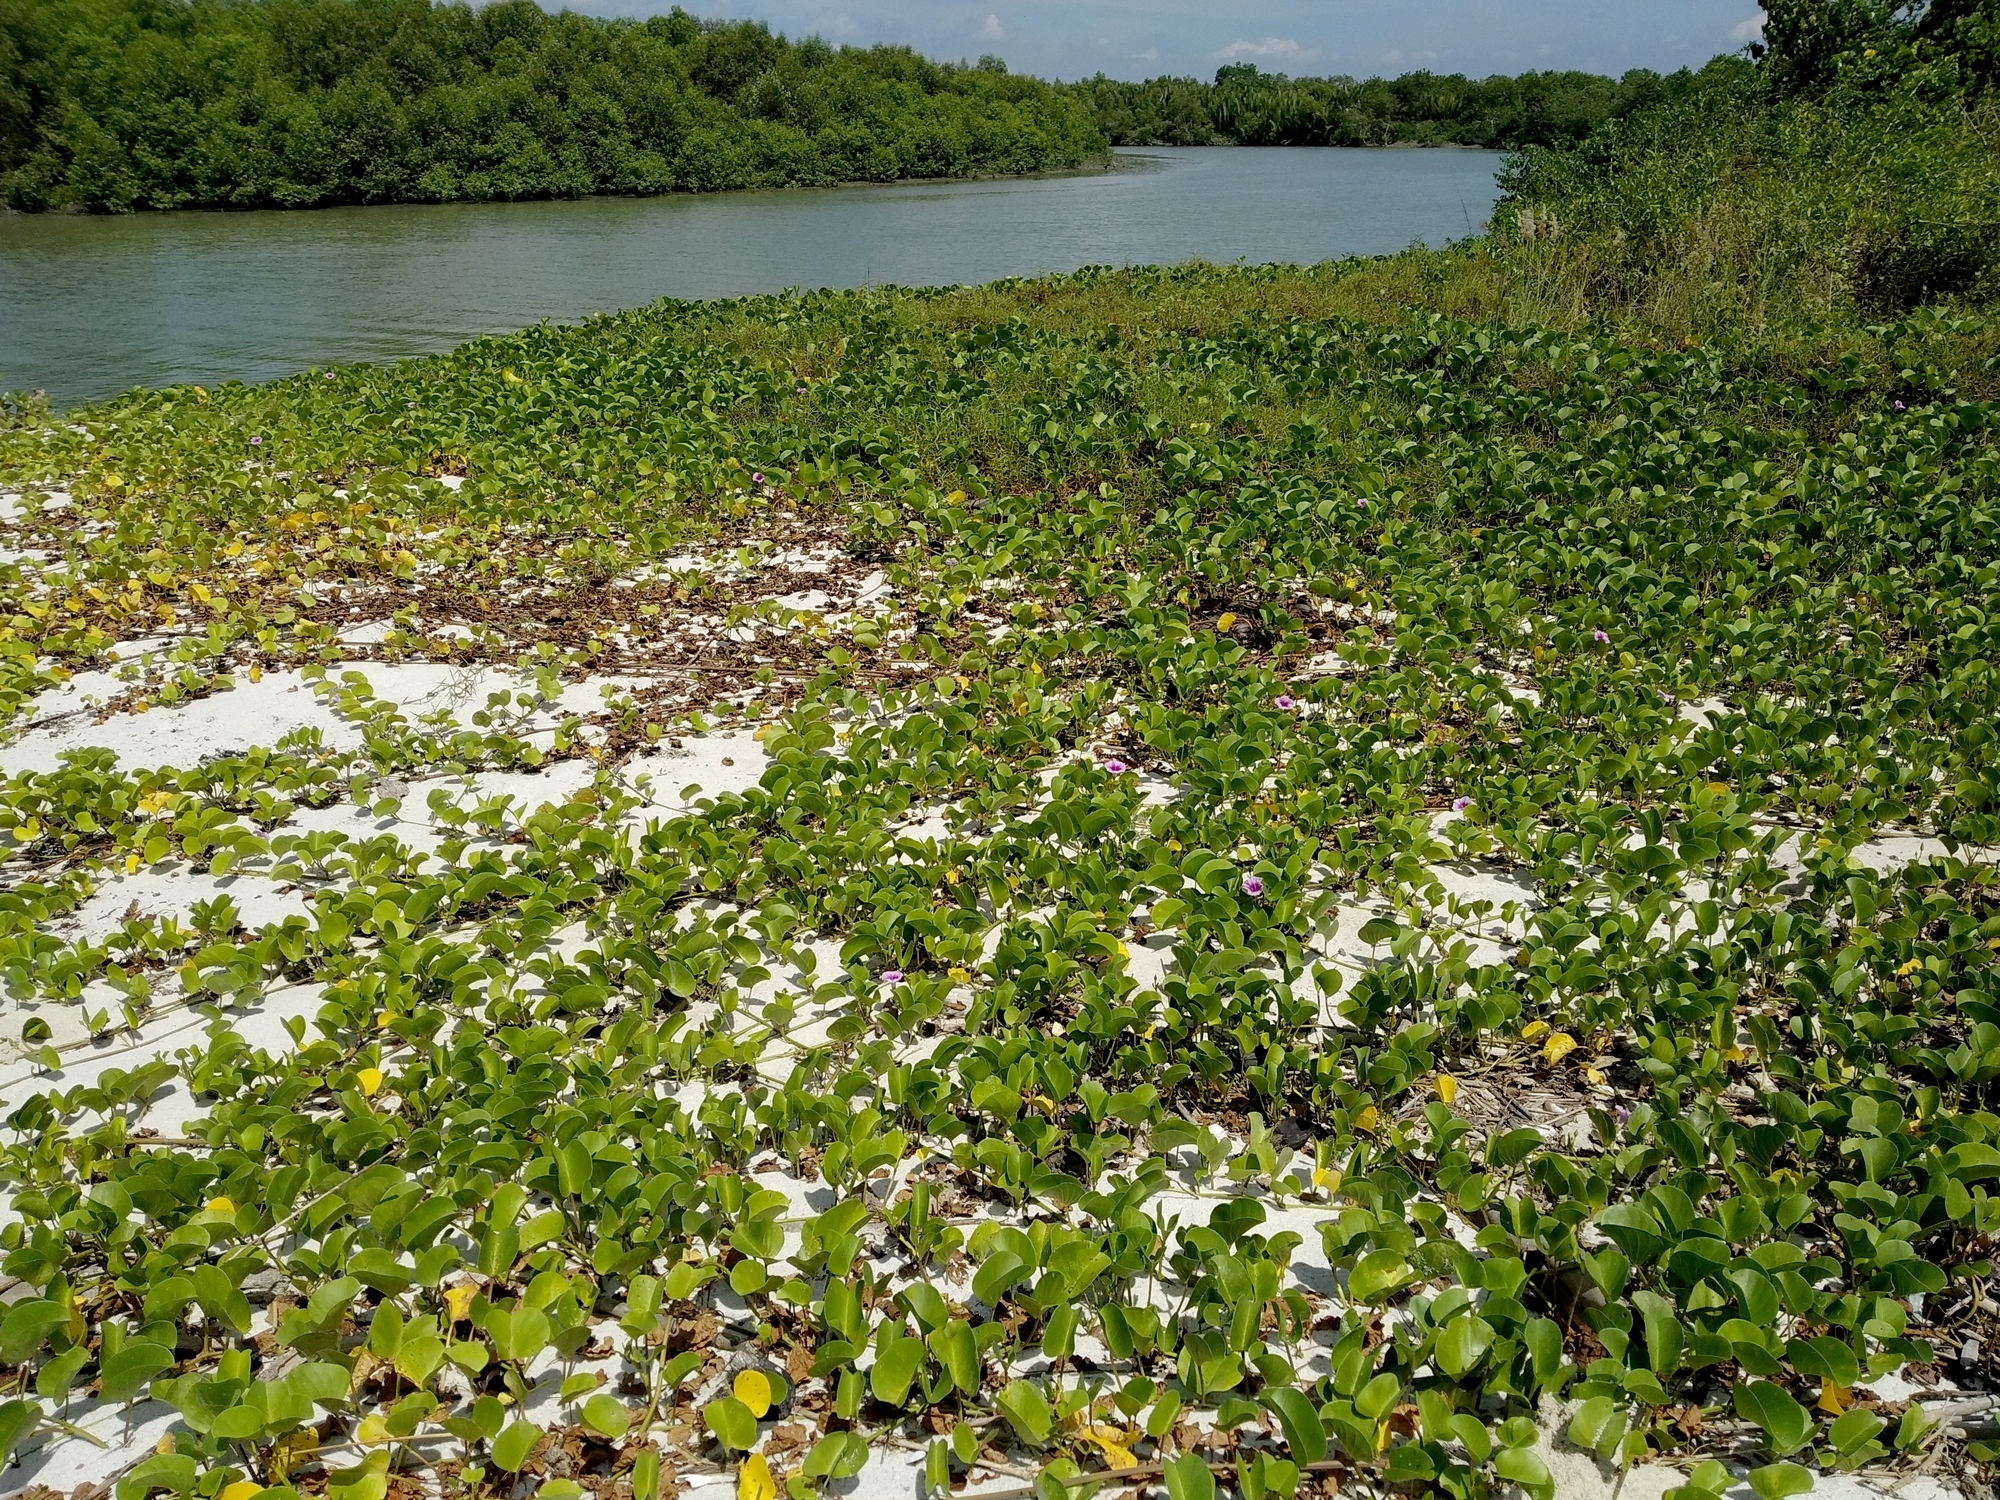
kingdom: Plantae
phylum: Tracheophyta
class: Magnoliopsida
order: Solanales
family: Convolvulaceae
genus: Ipomoea
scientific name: Ipomoea pes-caprae
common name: Beach morning glory
